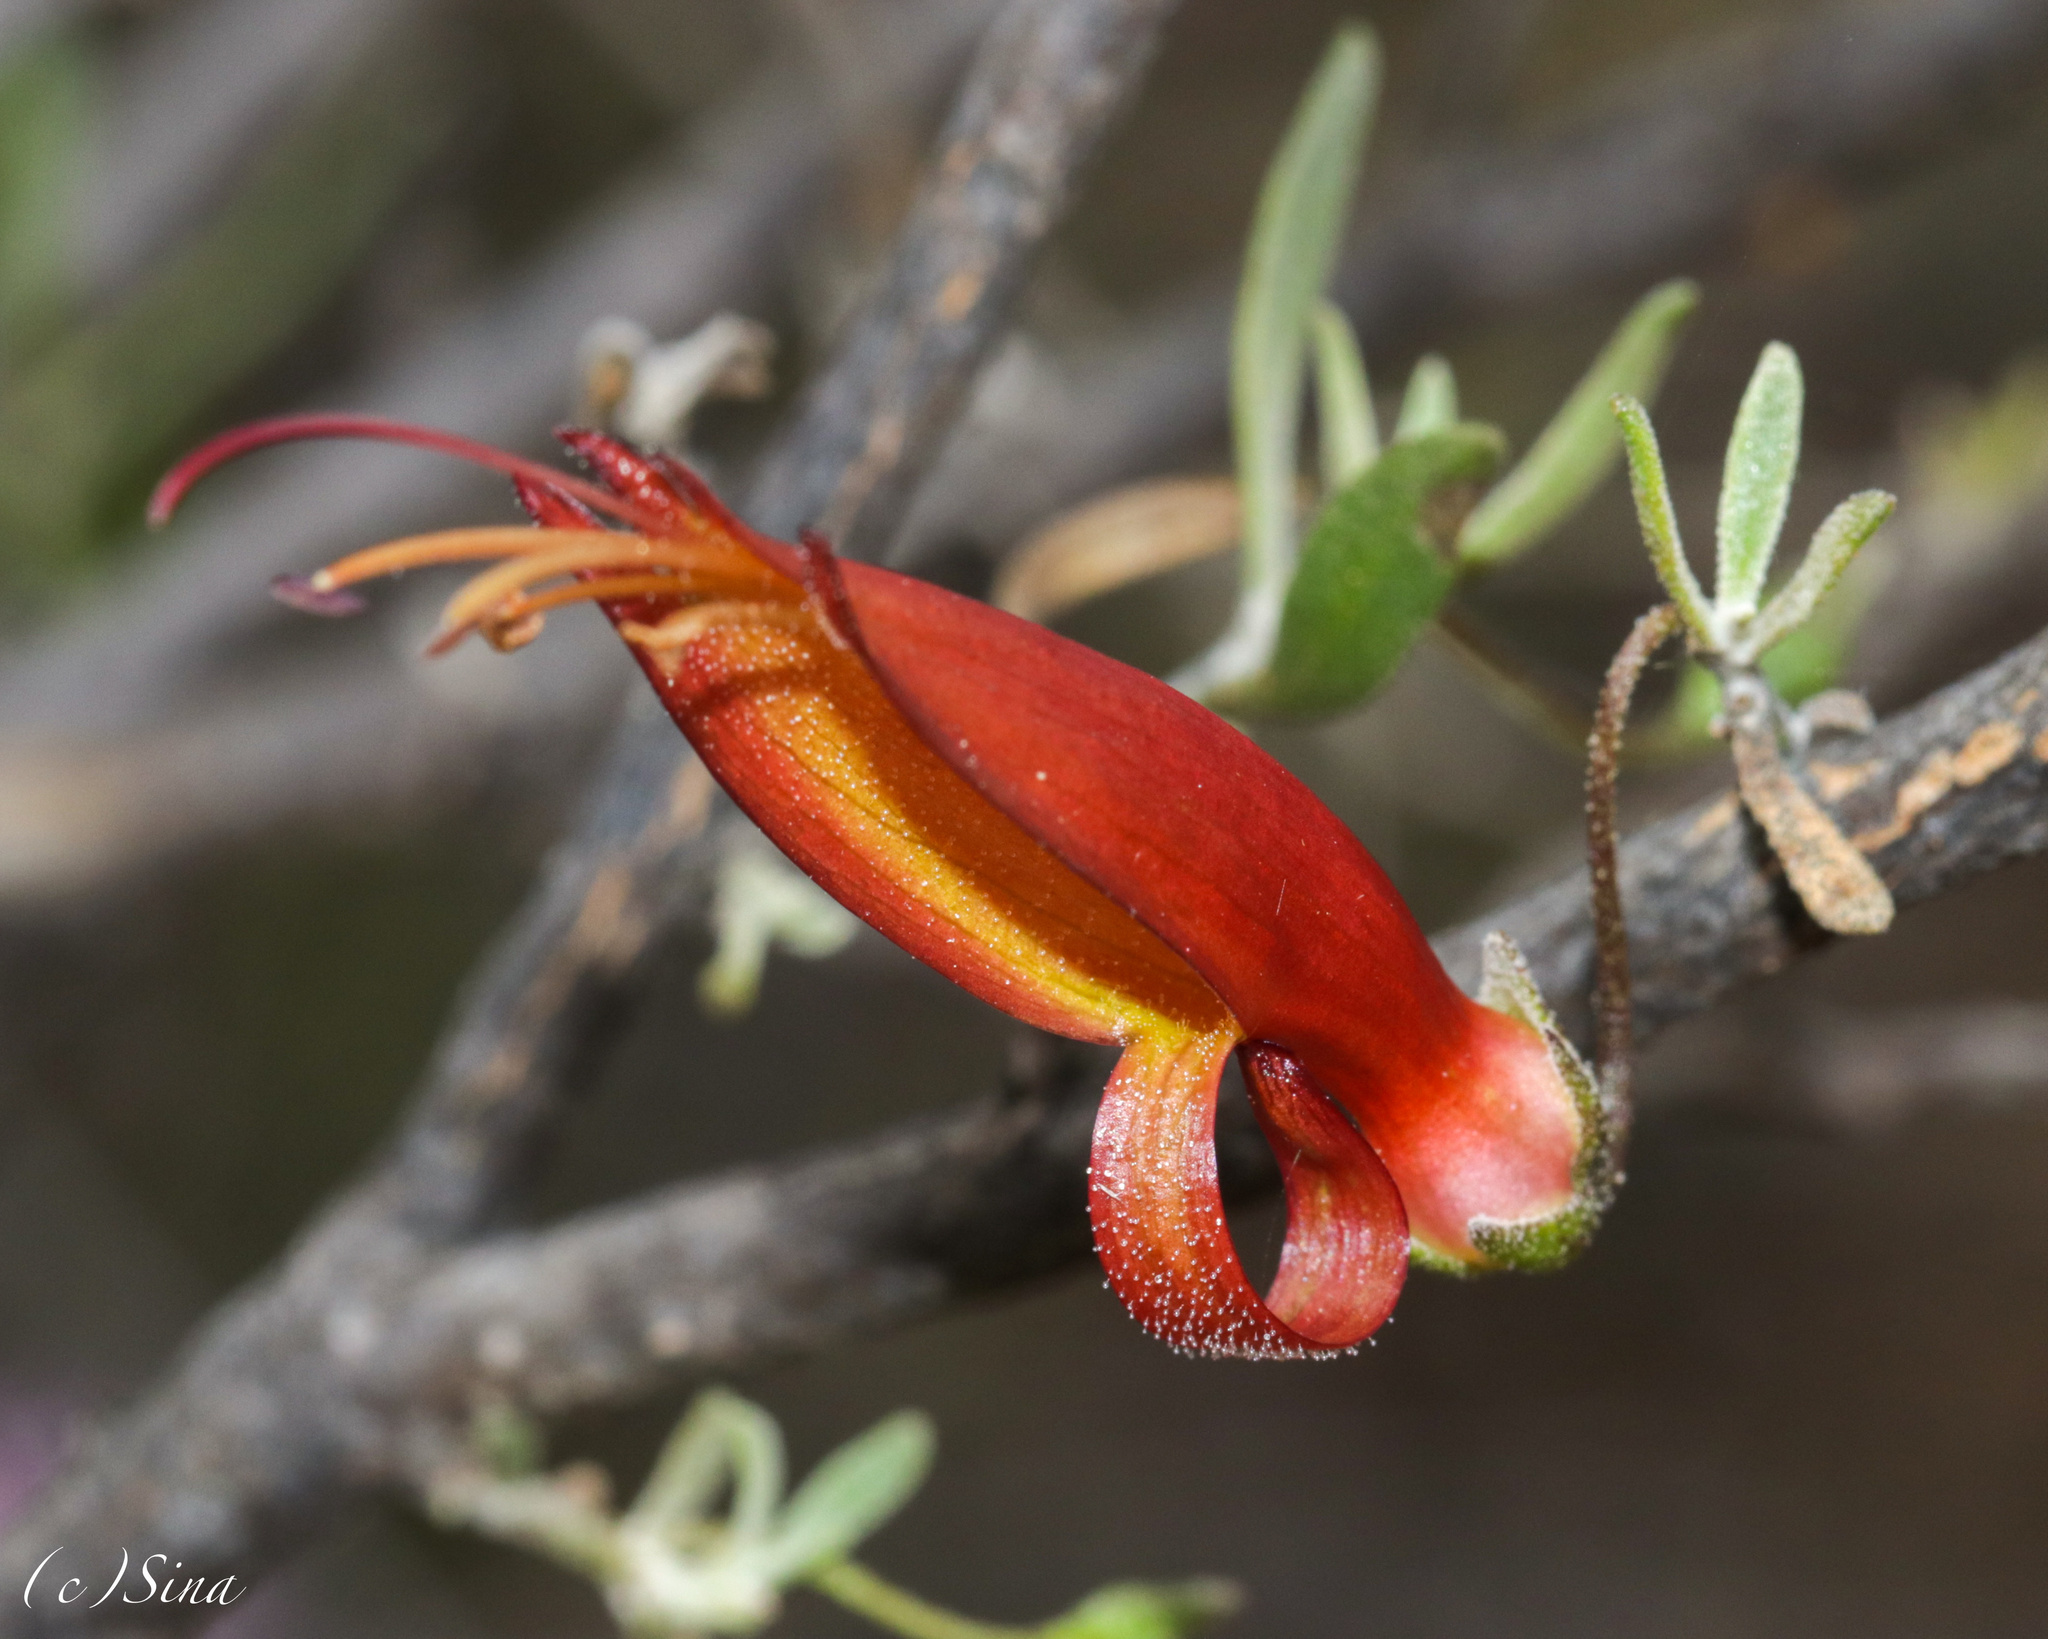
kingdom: Plantae
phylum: Tracheophyta
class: Magnoliopsida
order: Lamiales
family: Scrophulariaceae
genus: Eremophila
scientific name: Eremophila decipiens
